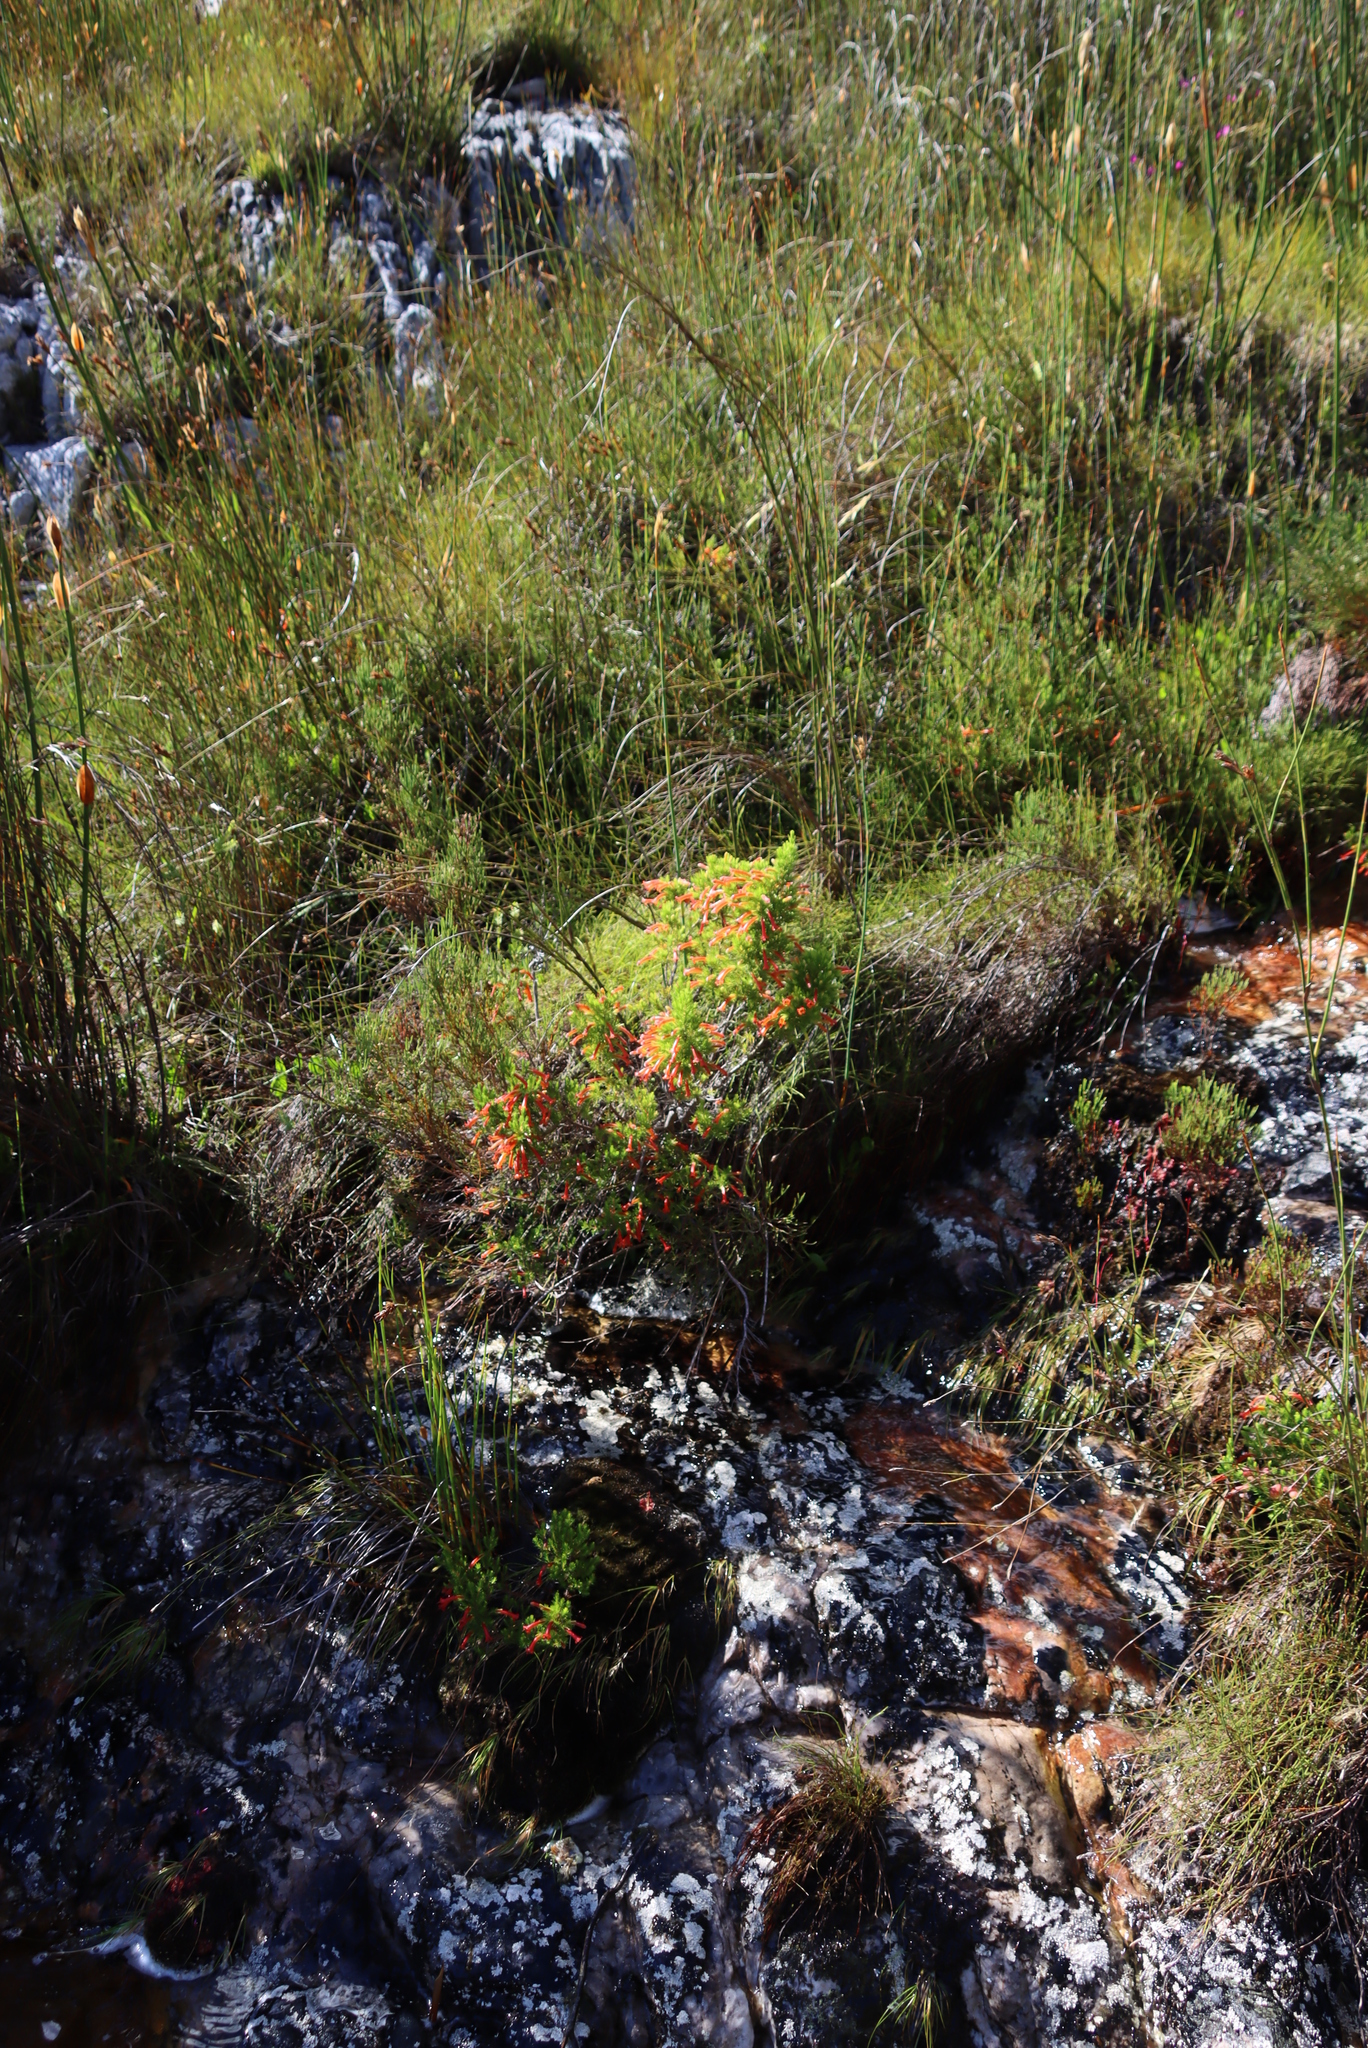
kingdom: Plantae
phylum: Tracheophyta
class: Magnoliopsida
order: Ericales
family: Ericaceae
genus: Erica
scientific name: Erica grandiflora
